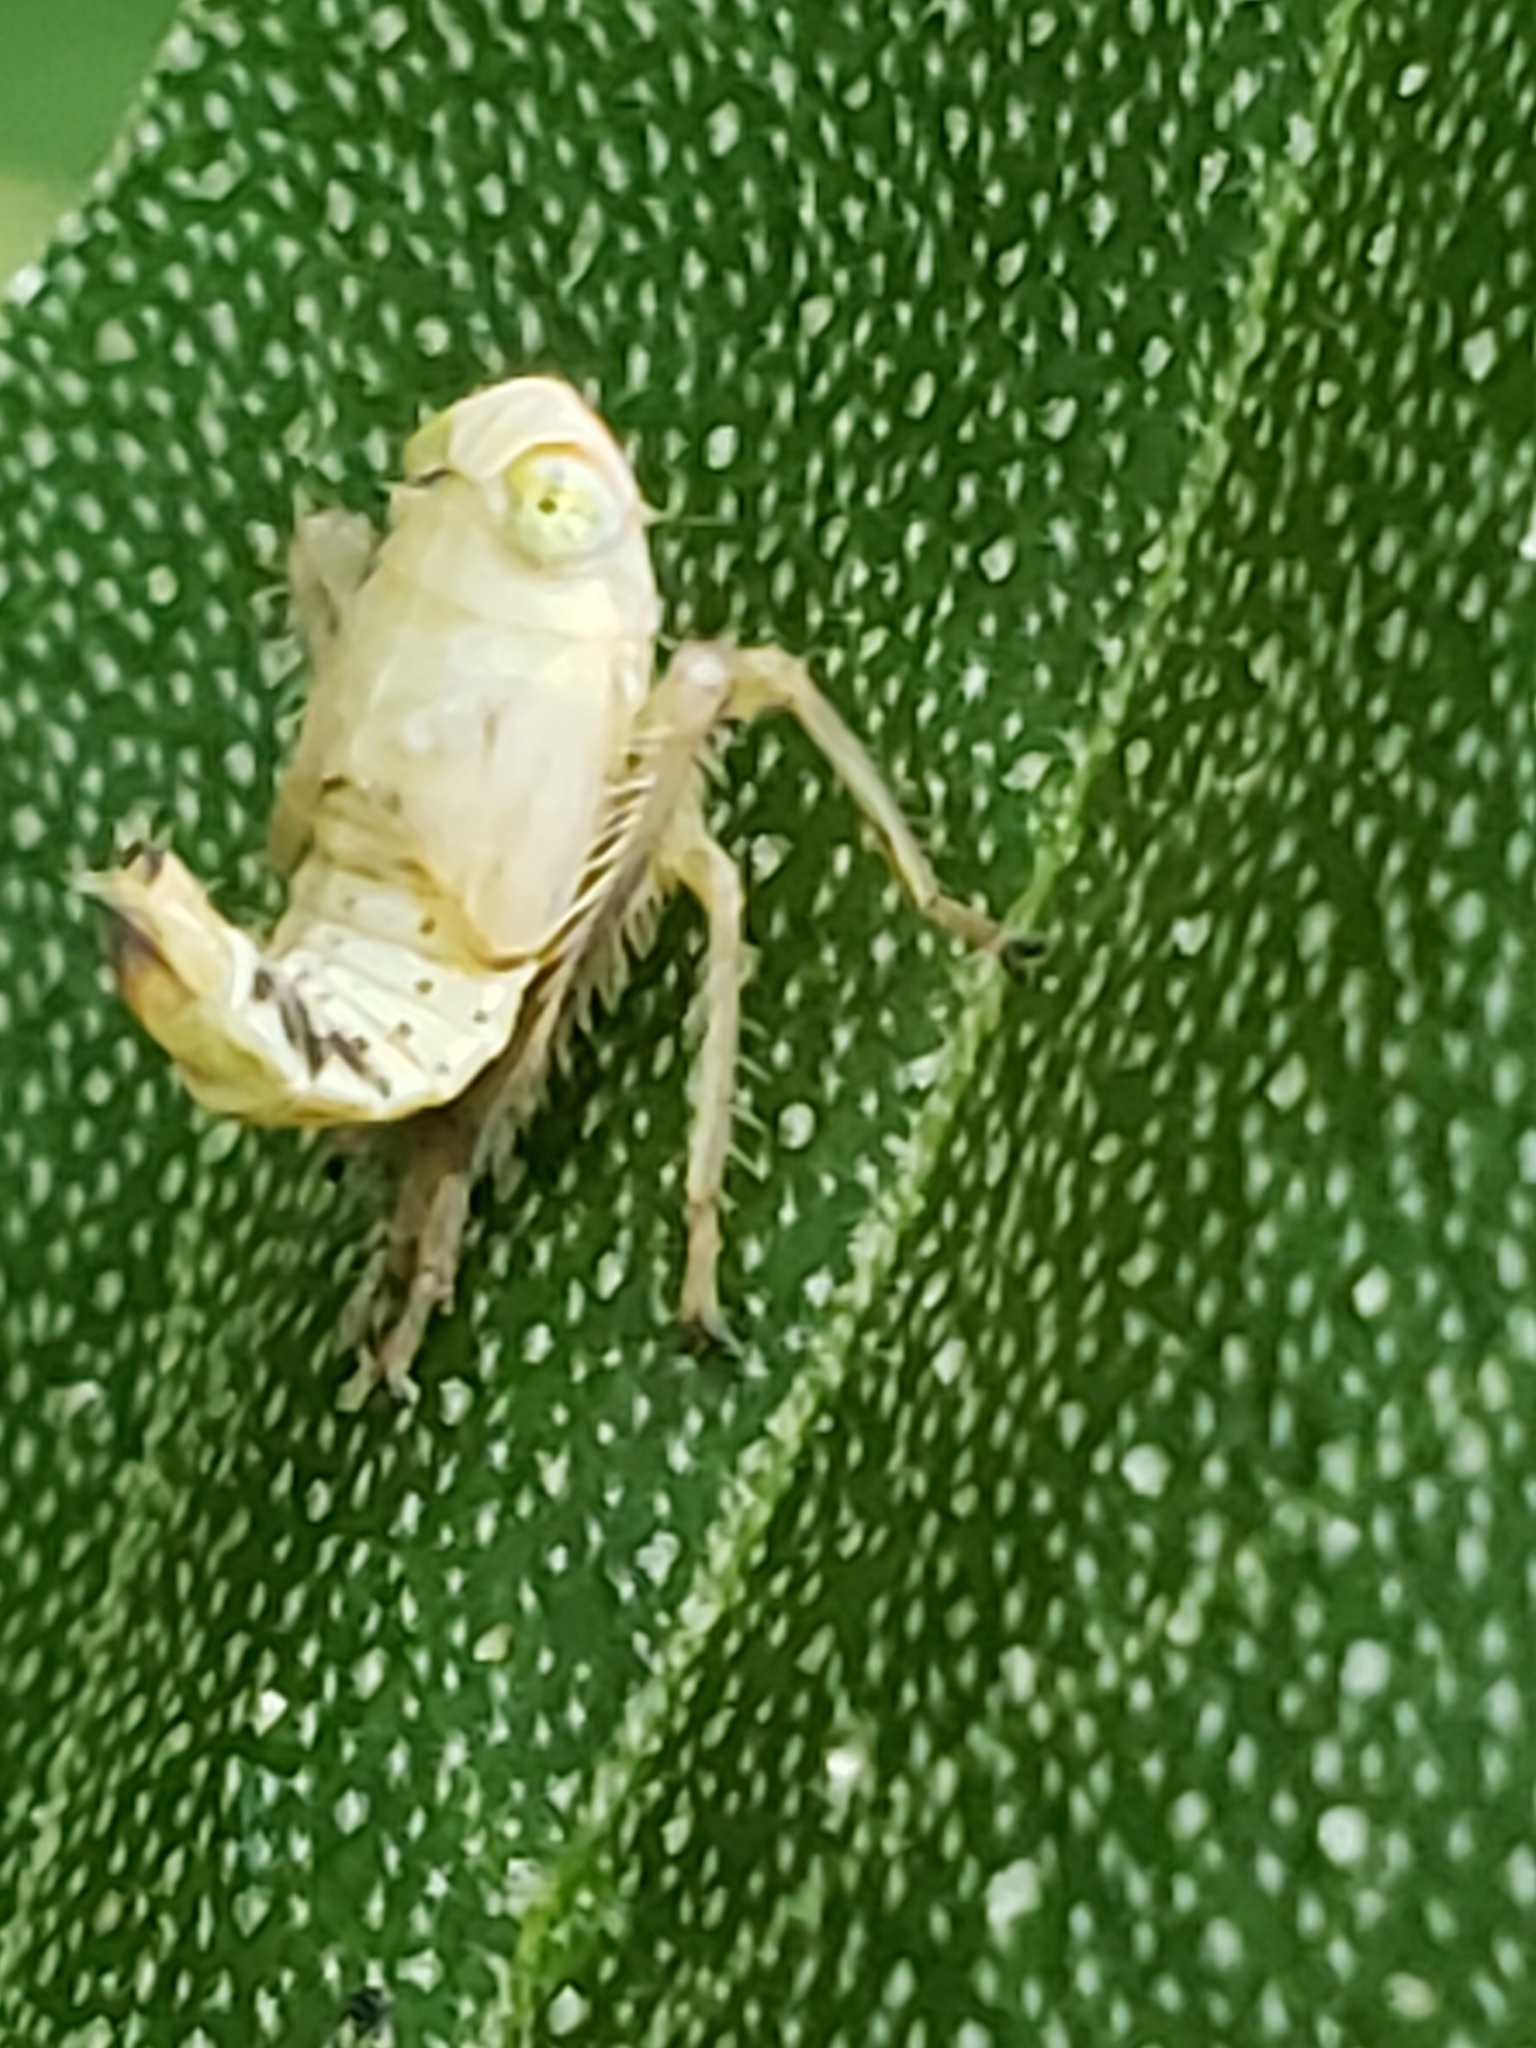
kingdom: Animalia
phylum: Arthropoda
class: Insecta
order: Hemiptera
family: Cicadellidae
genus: Jikradia
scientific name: Jikradia olitoria
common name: Coppery leafhopper
